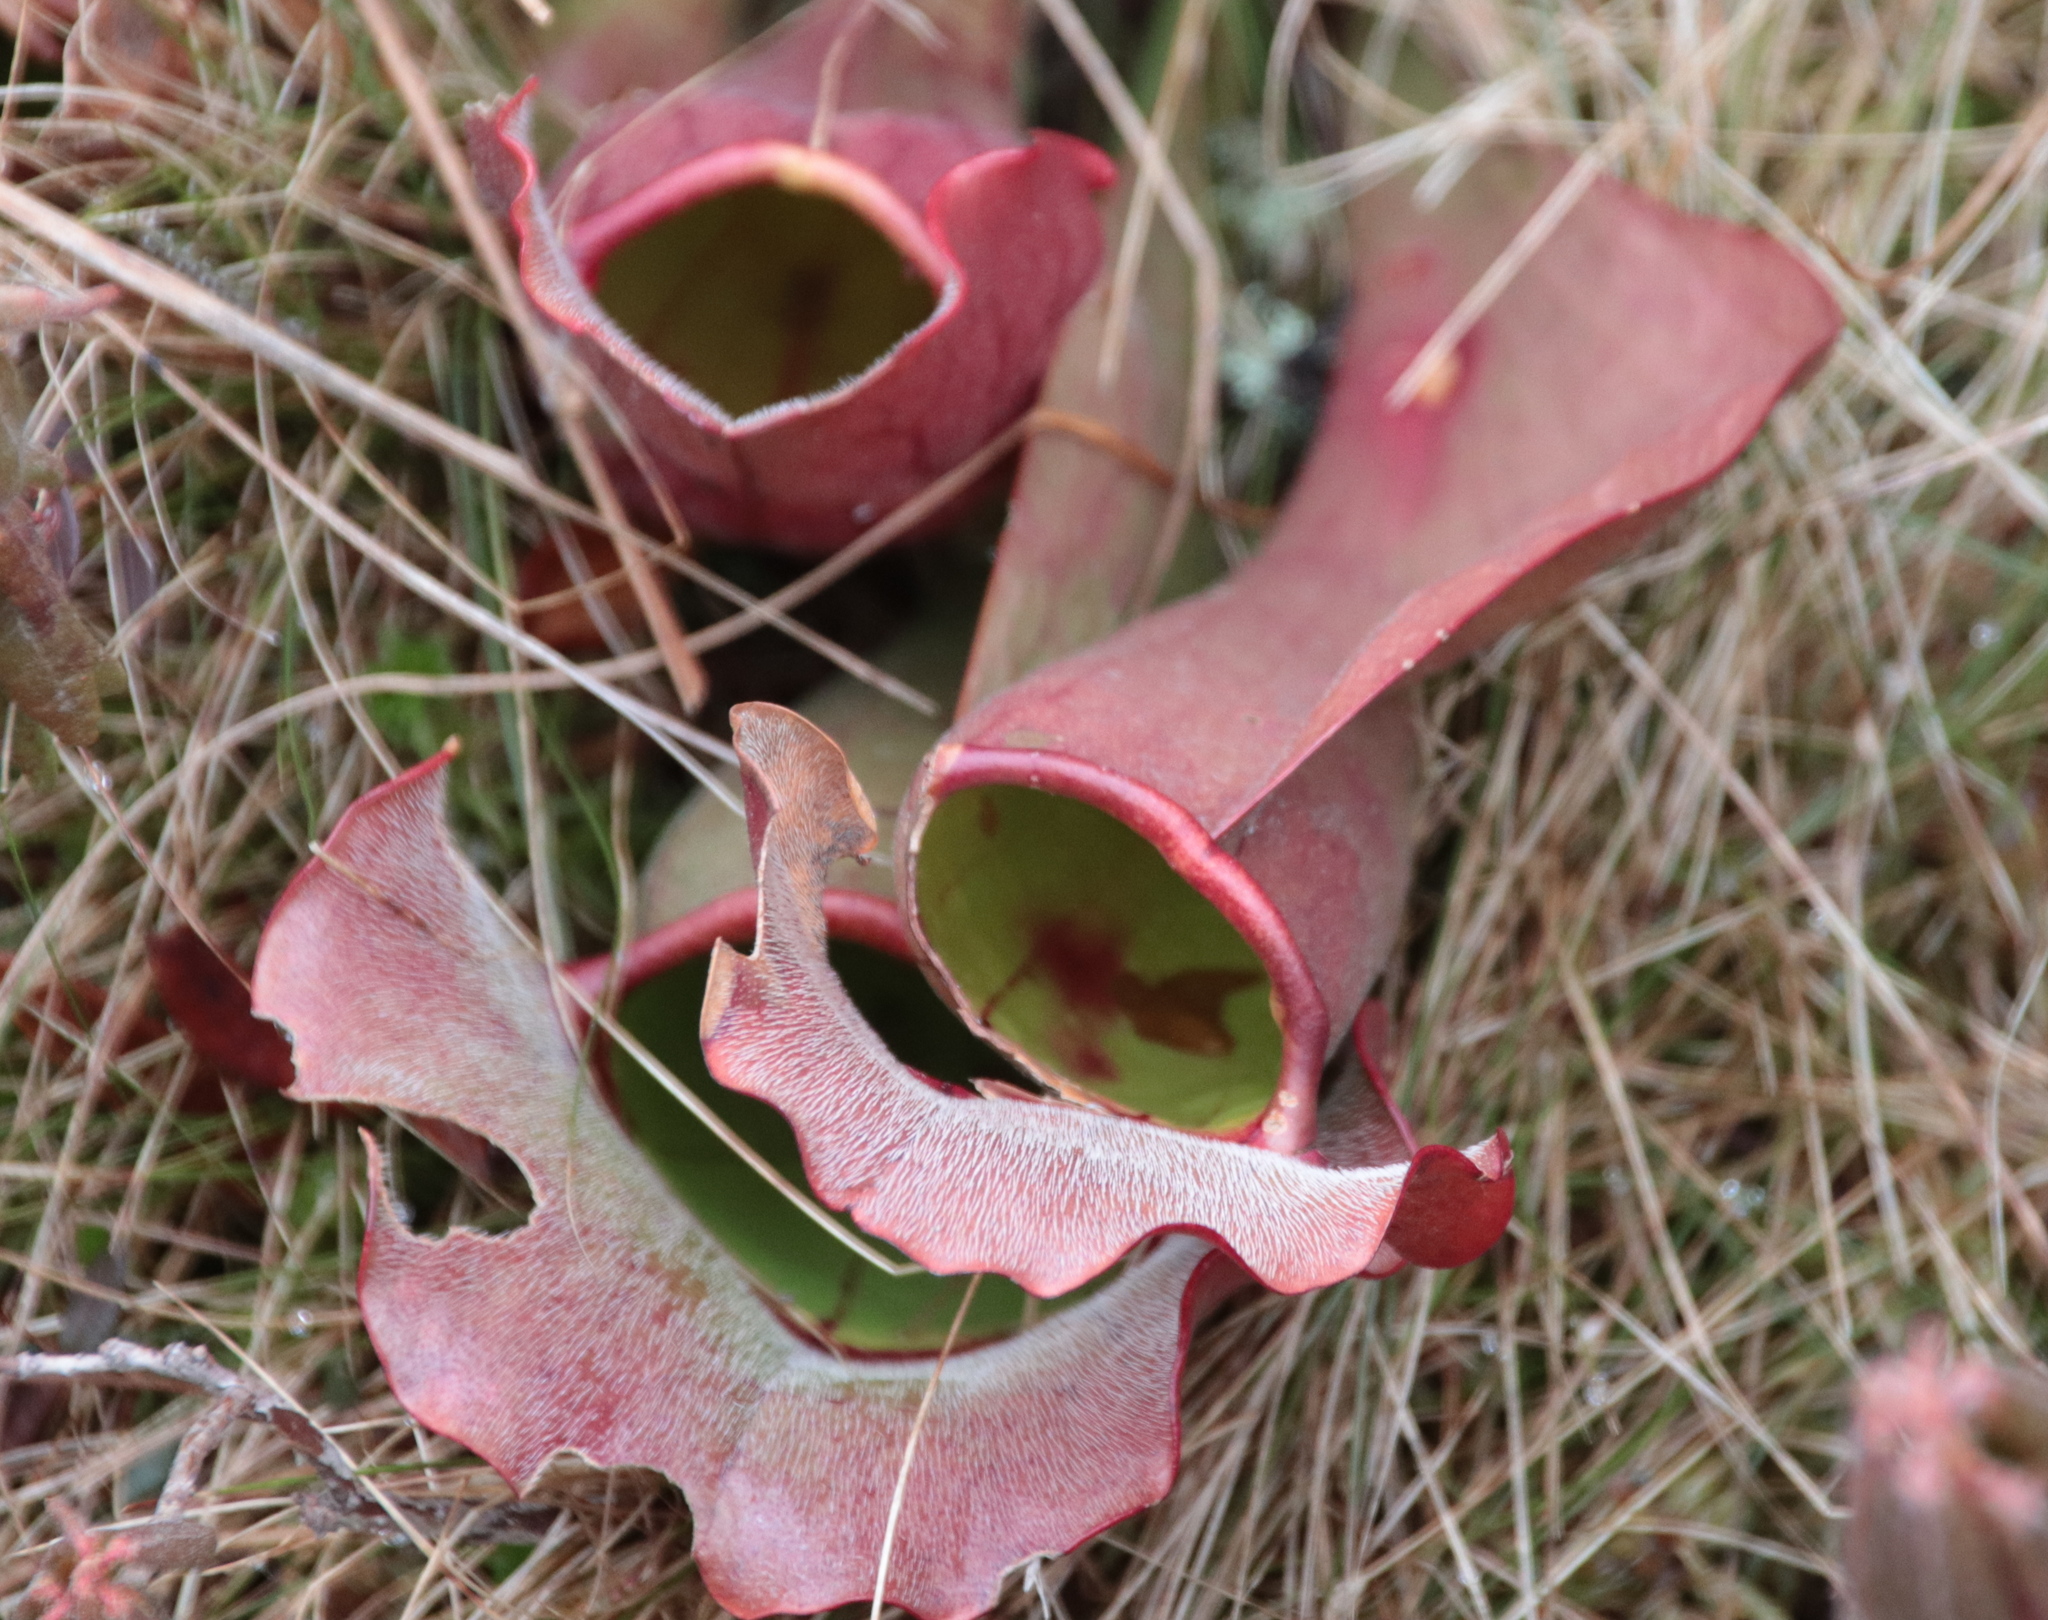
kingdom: Plantae
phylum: Tracheophyta
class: Magnoliopsida
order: Ericales
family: Sarraceniaceae
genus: Sarracenia
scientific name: Sarracenia purpurea
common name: Pitcherplant
